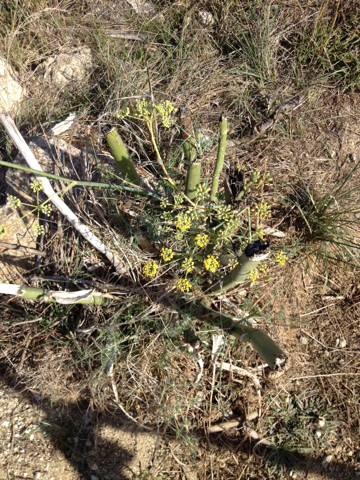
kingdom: Plantae
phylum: Tracheophyta
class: Magnoliopsida
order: Apiales
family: Apiaceae
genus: Foeniculum
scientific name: Foeniculum vulgare
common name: Fennel
